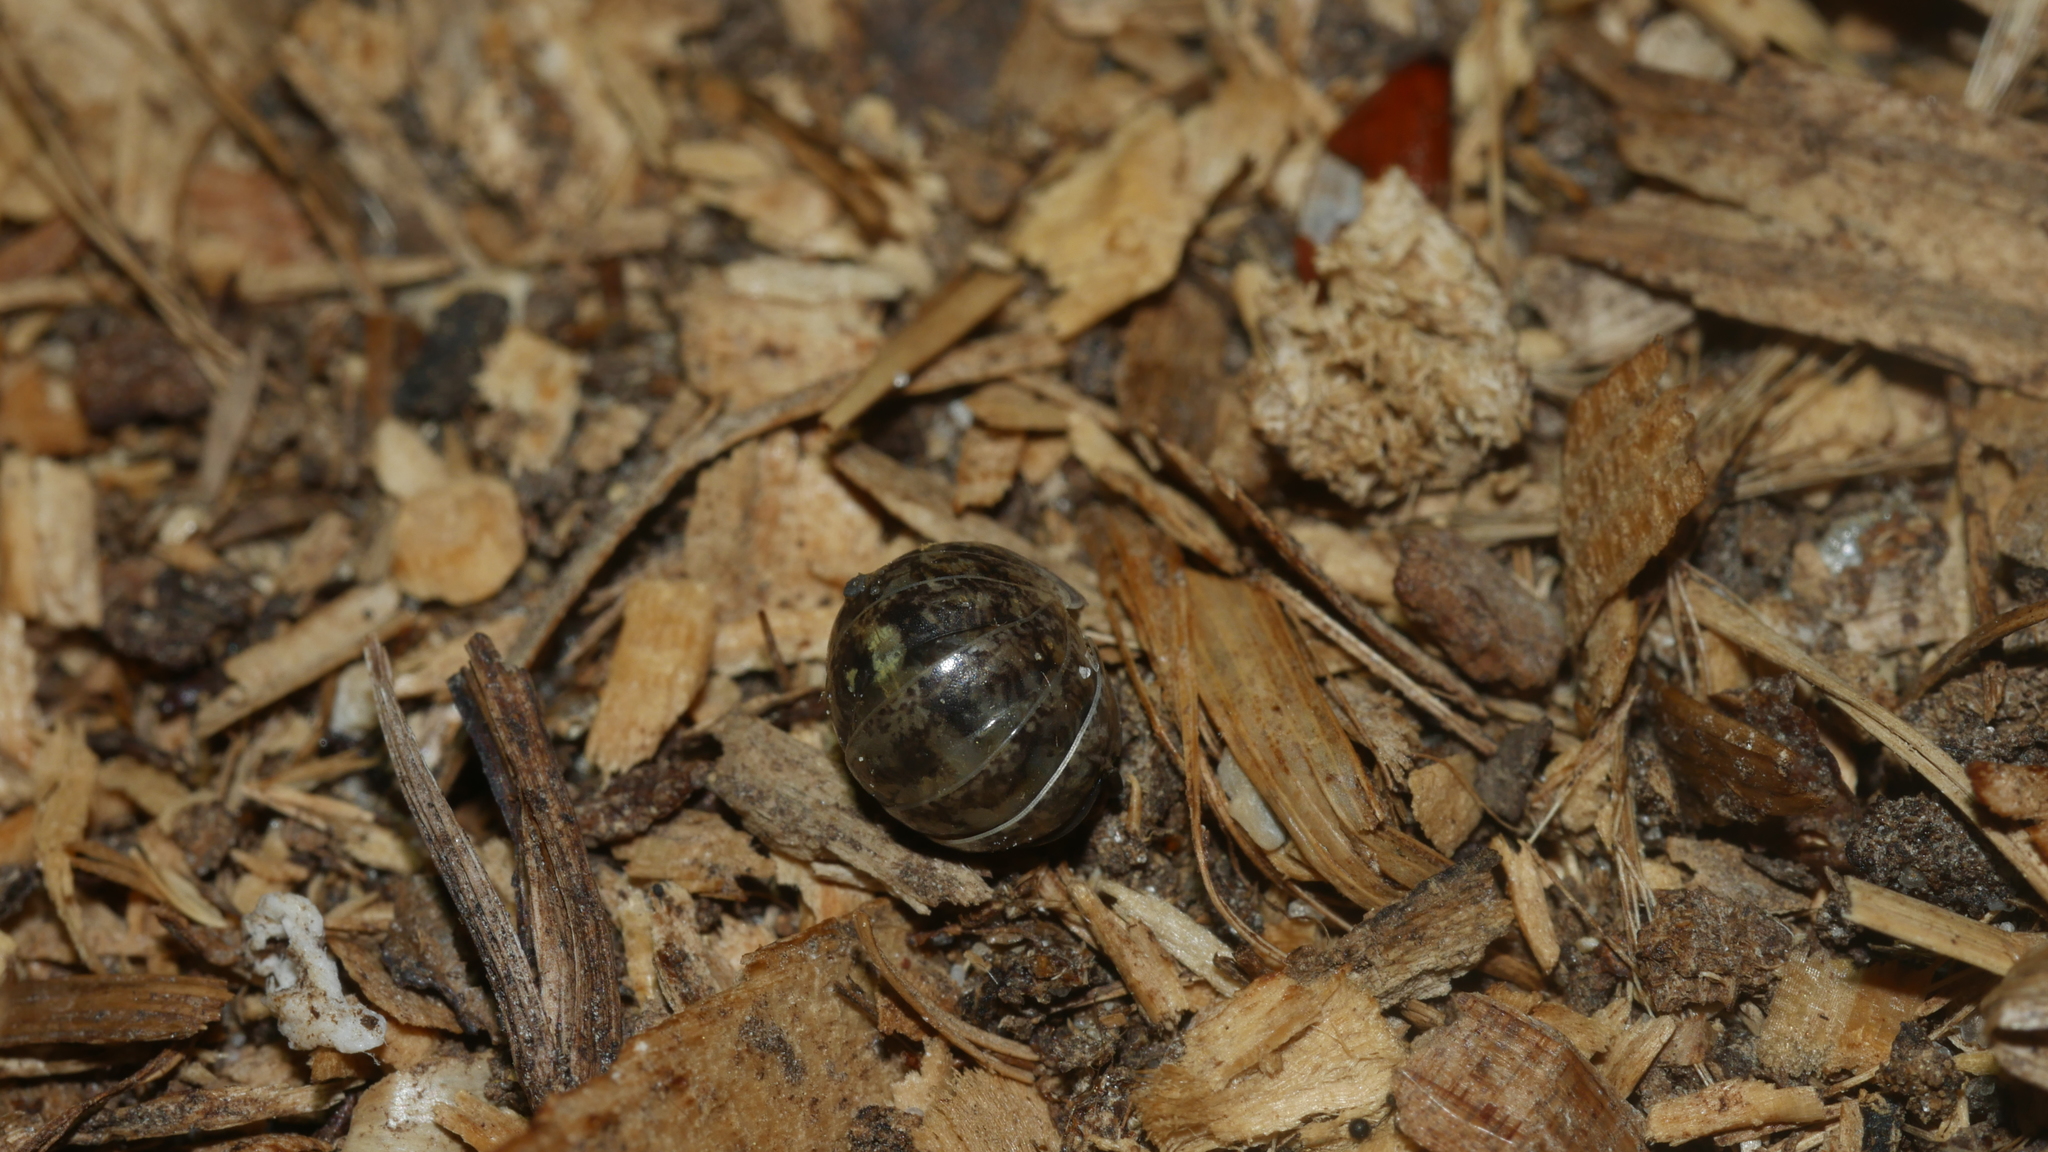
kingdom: Animalia
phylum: Arthropoda
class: Malacostraca
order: Isopoda
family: Armadillidiidae
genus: Armadillidium
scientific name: Armadillidium vulgare
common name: Common pill woodlouse
